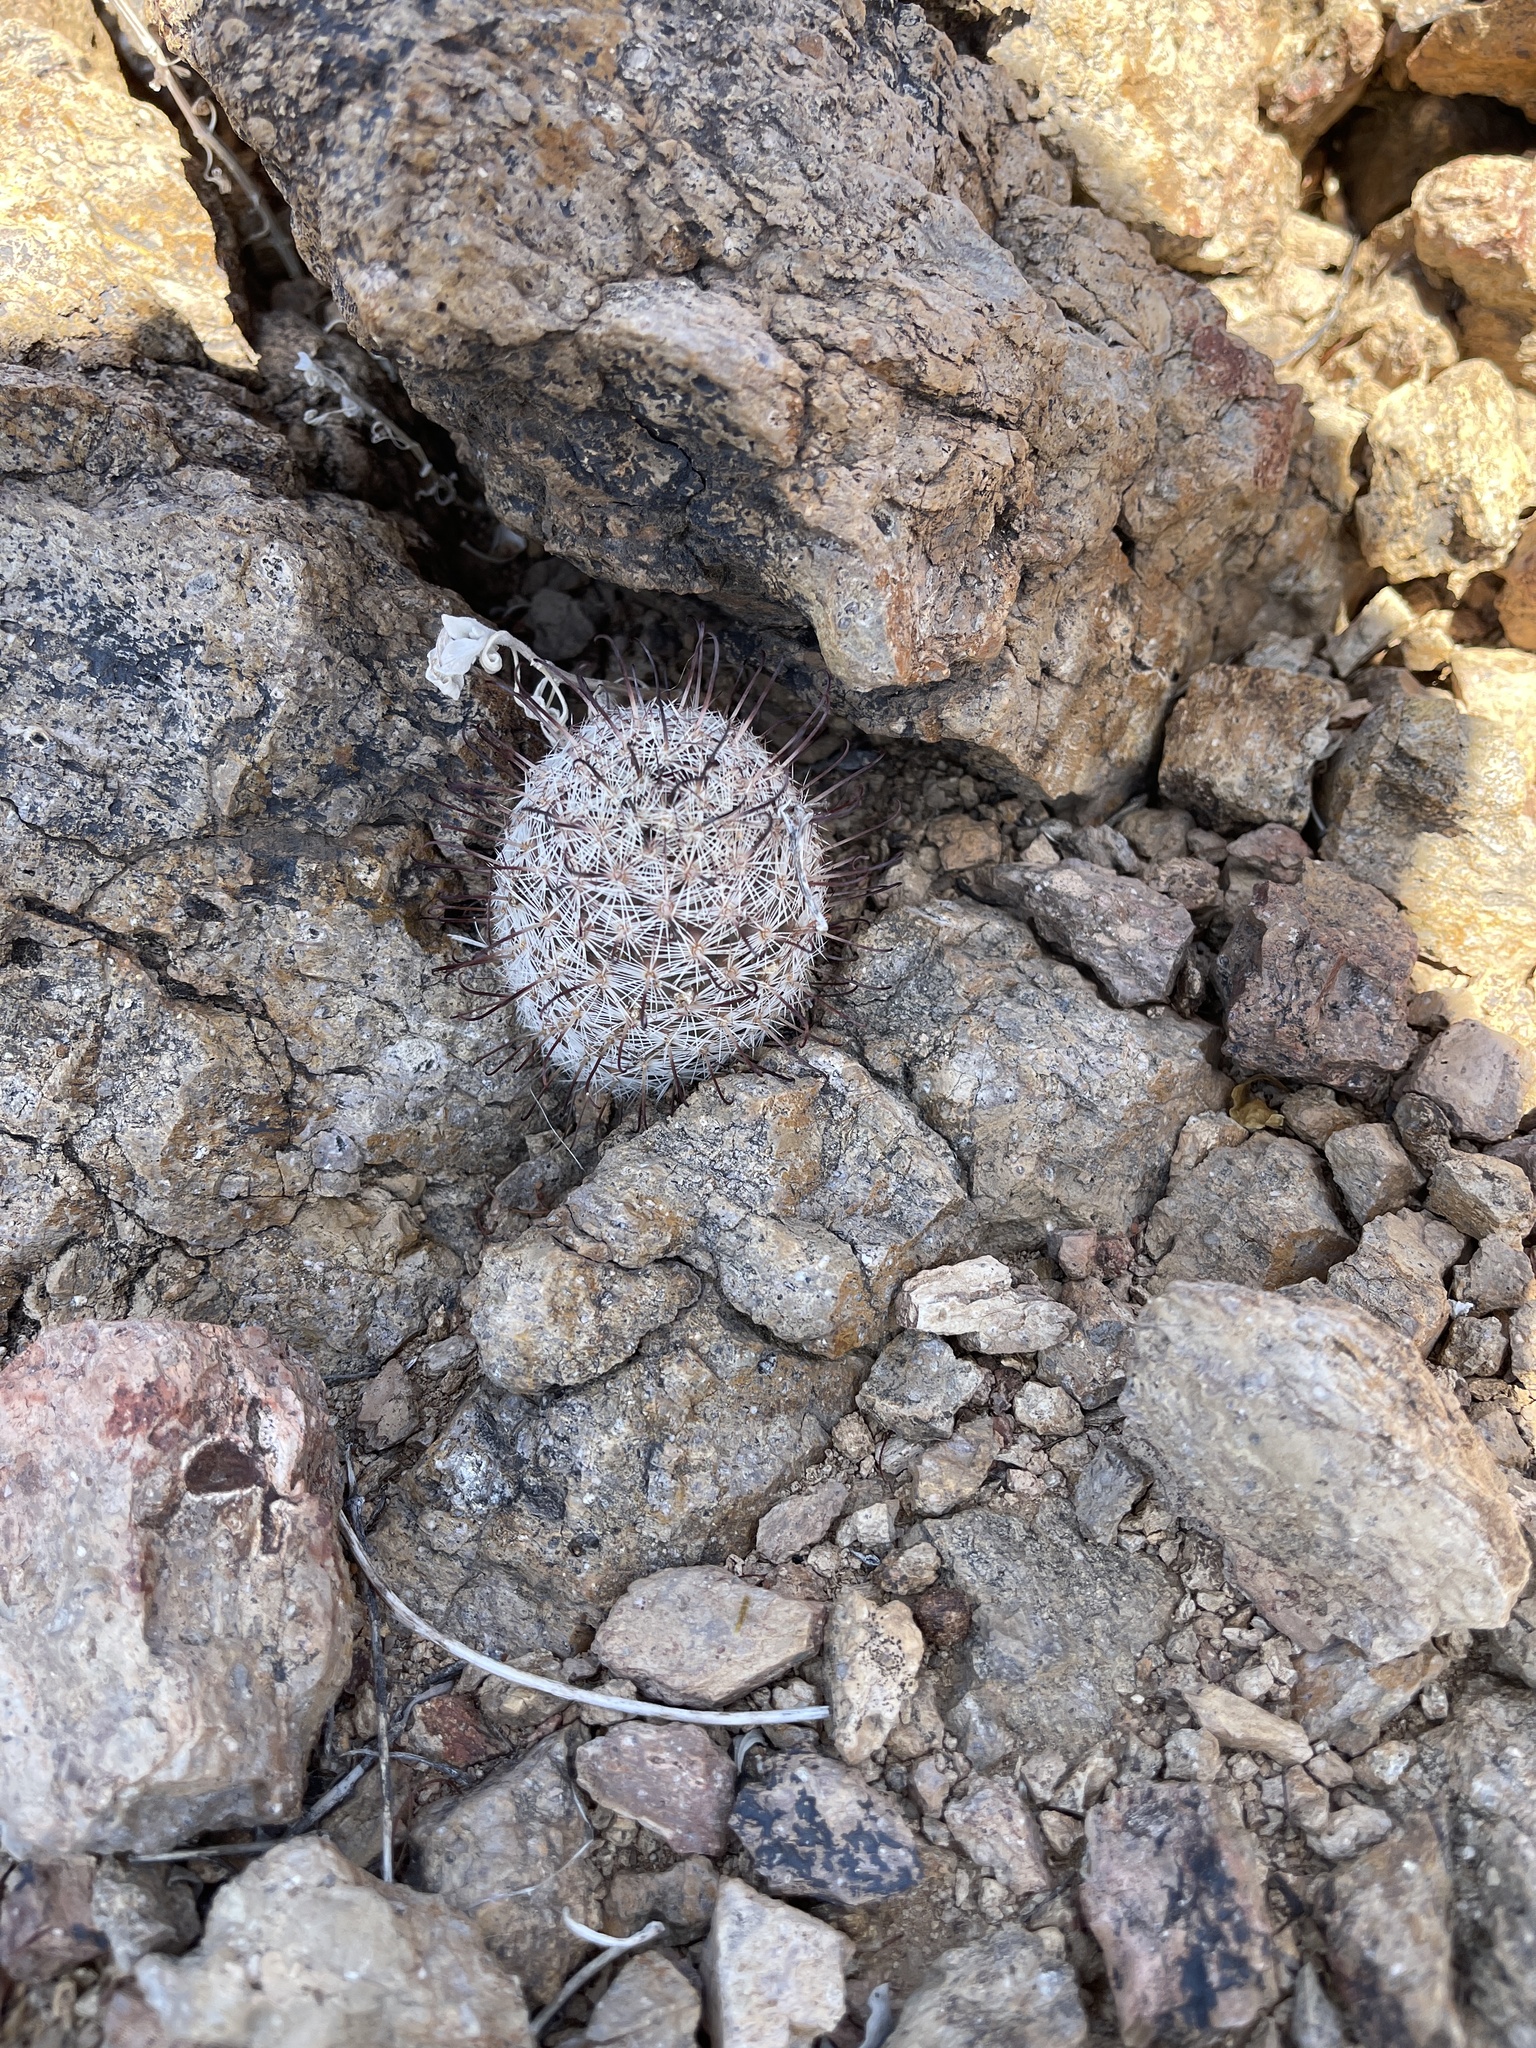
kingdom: Plantae
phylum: Tracheophyta
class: Magnoliopsida
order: Caryophyllales
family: Cactaceae
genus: Cochemiea
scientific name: Cochemiea grahamii
